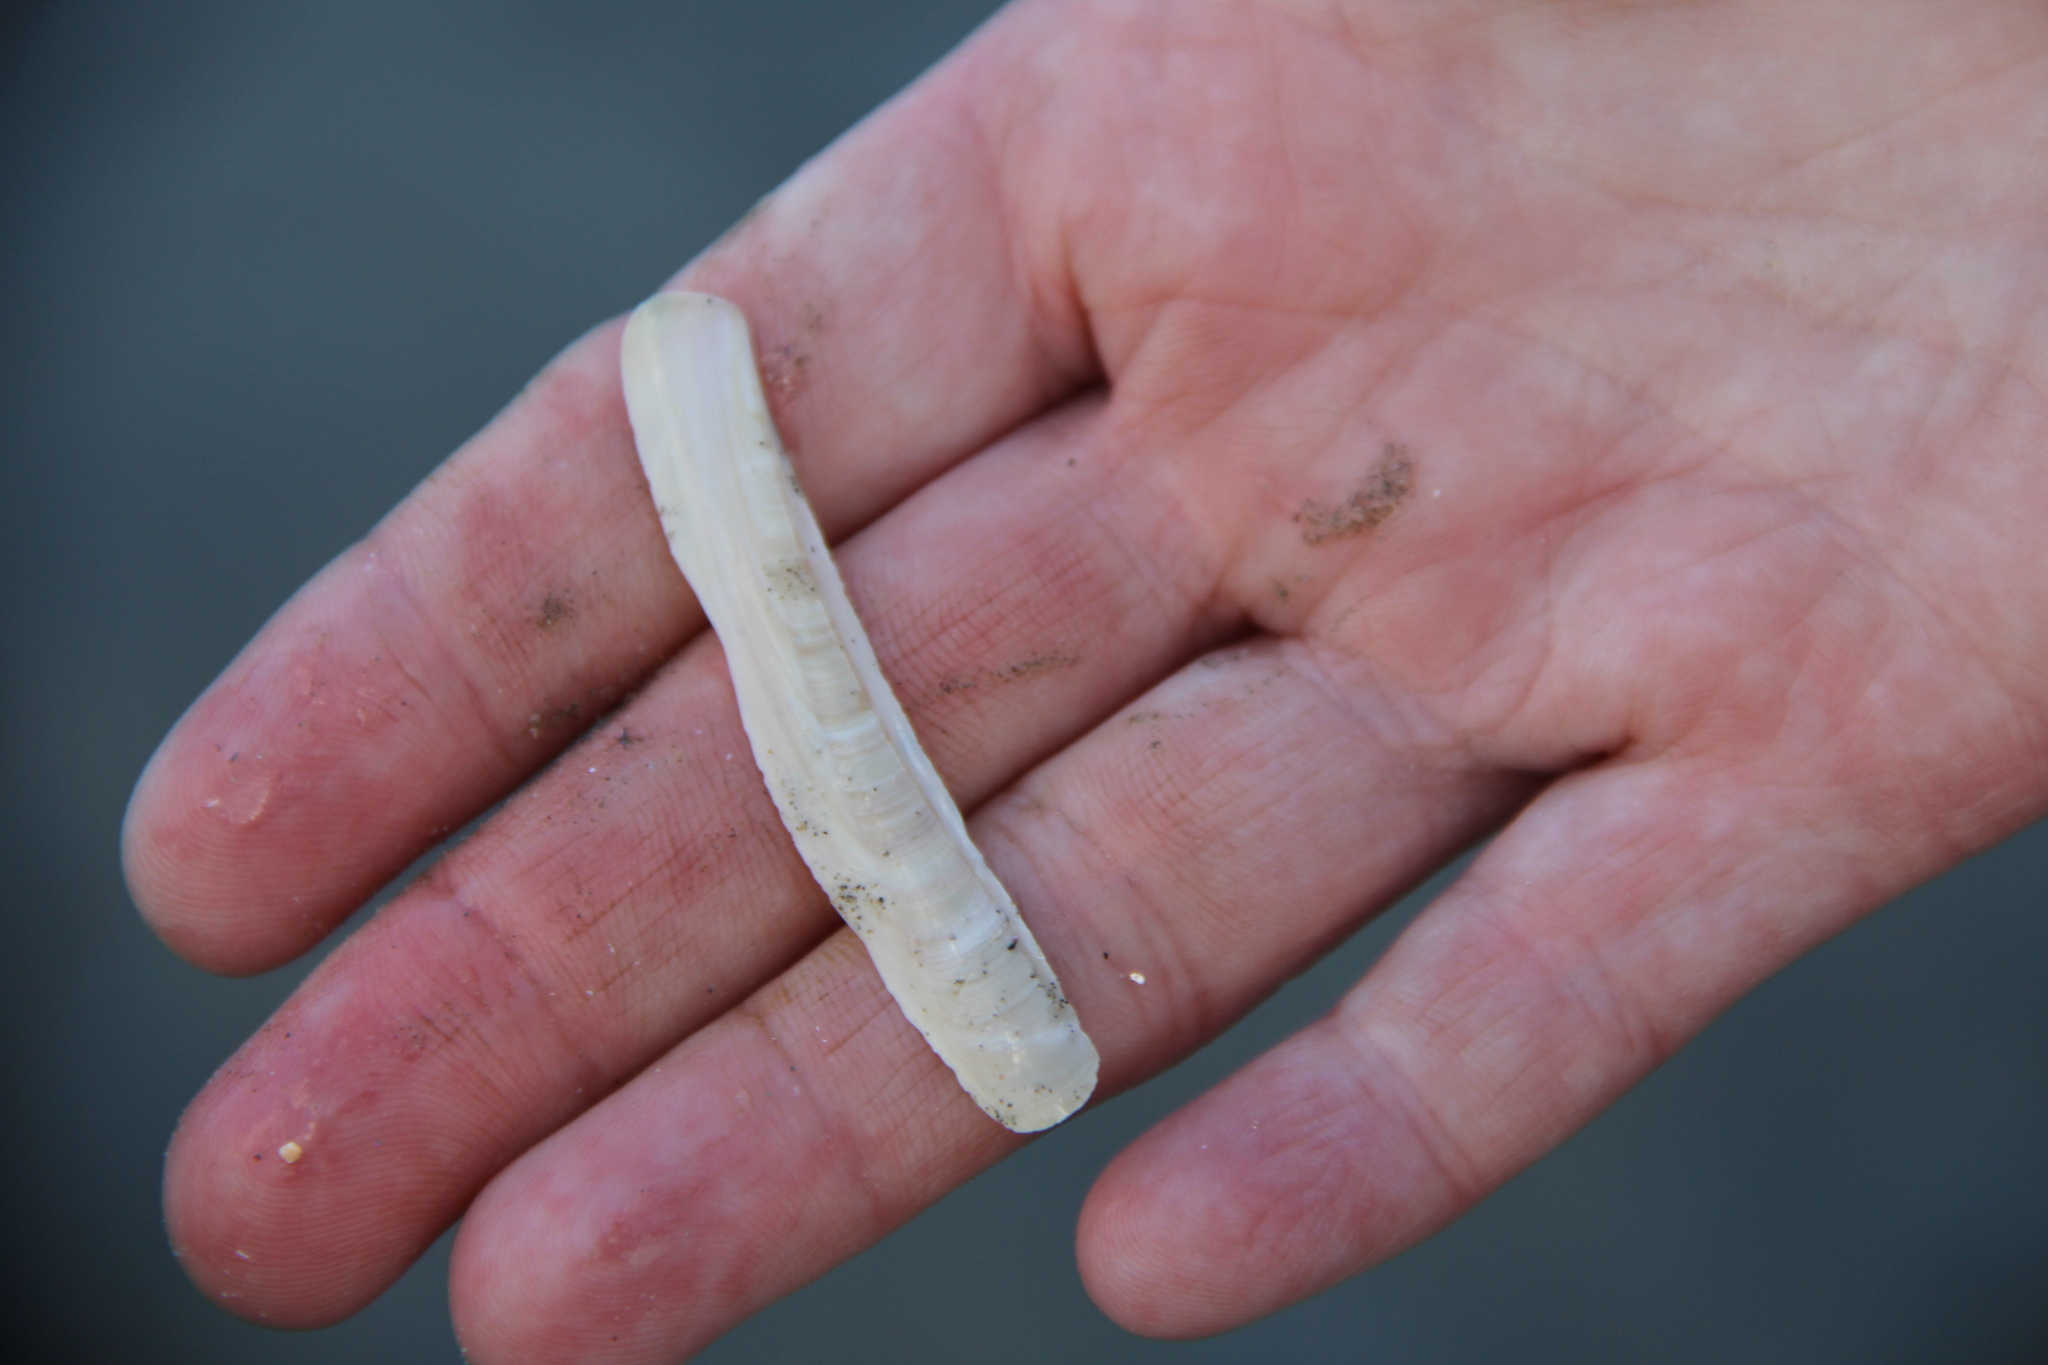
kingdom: Animalia
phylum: Mollusca
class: Bivalvia
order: Adapedonta
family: Pharidae
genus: Ensis
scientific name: Ensis leei
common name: American jack knife clam
